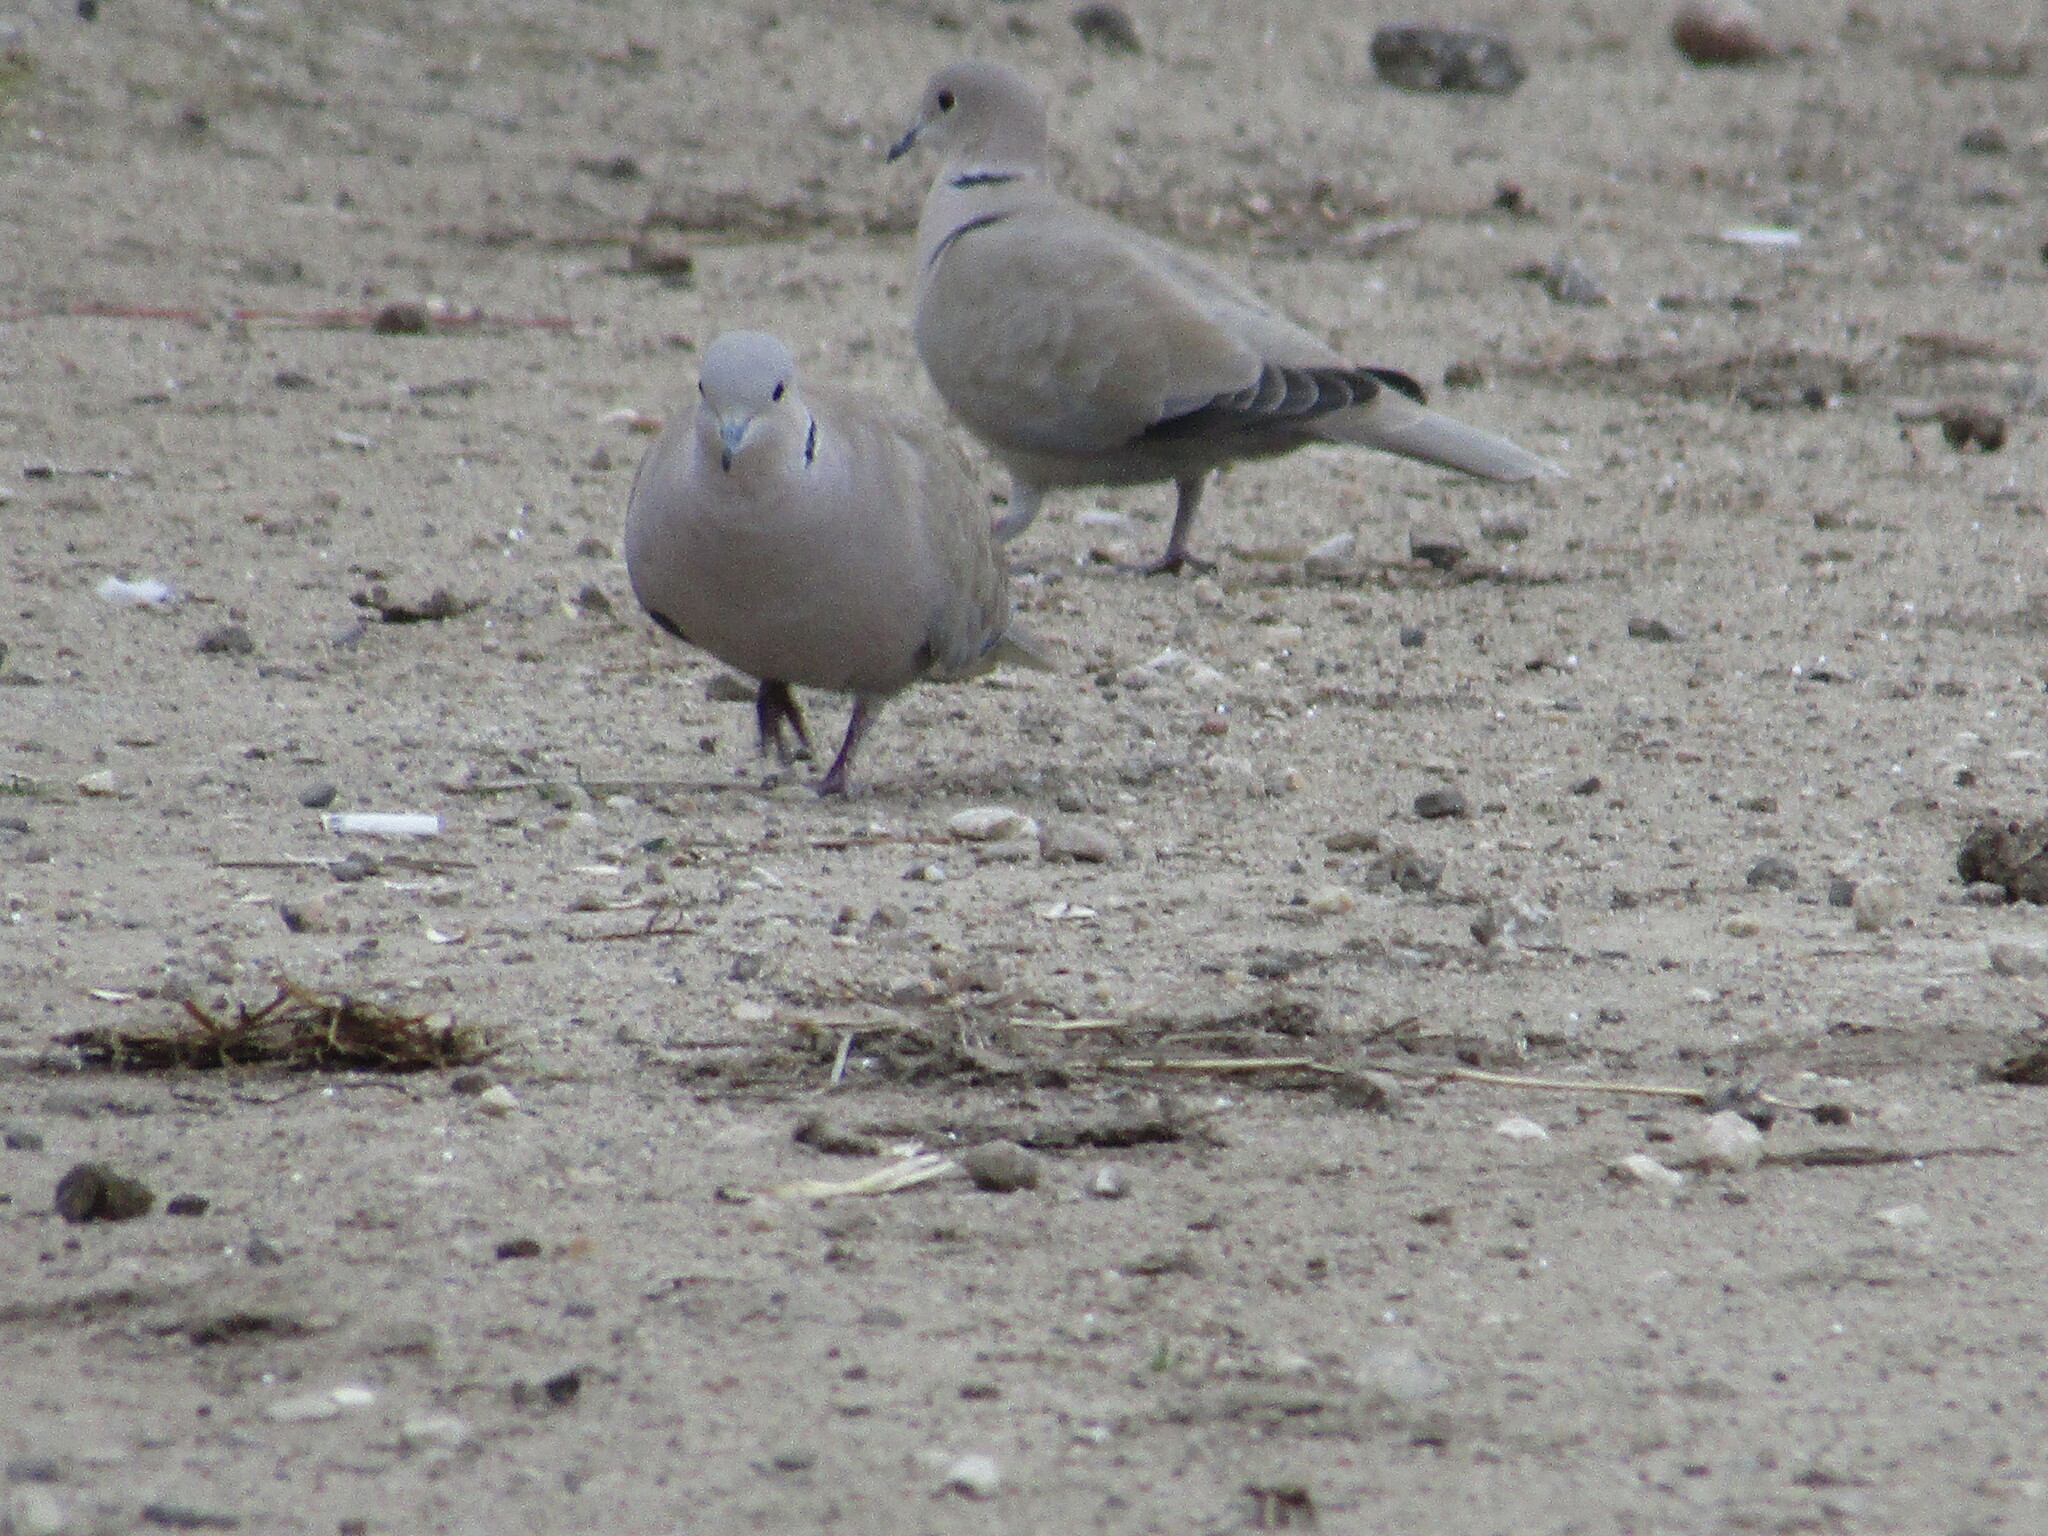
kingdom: Animalia
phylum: Chordata
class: Aves
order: Columbiformes
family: Columbidae
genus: Streptopelia
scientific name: Streptopelia decaocto
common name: Eurasian collared dove
